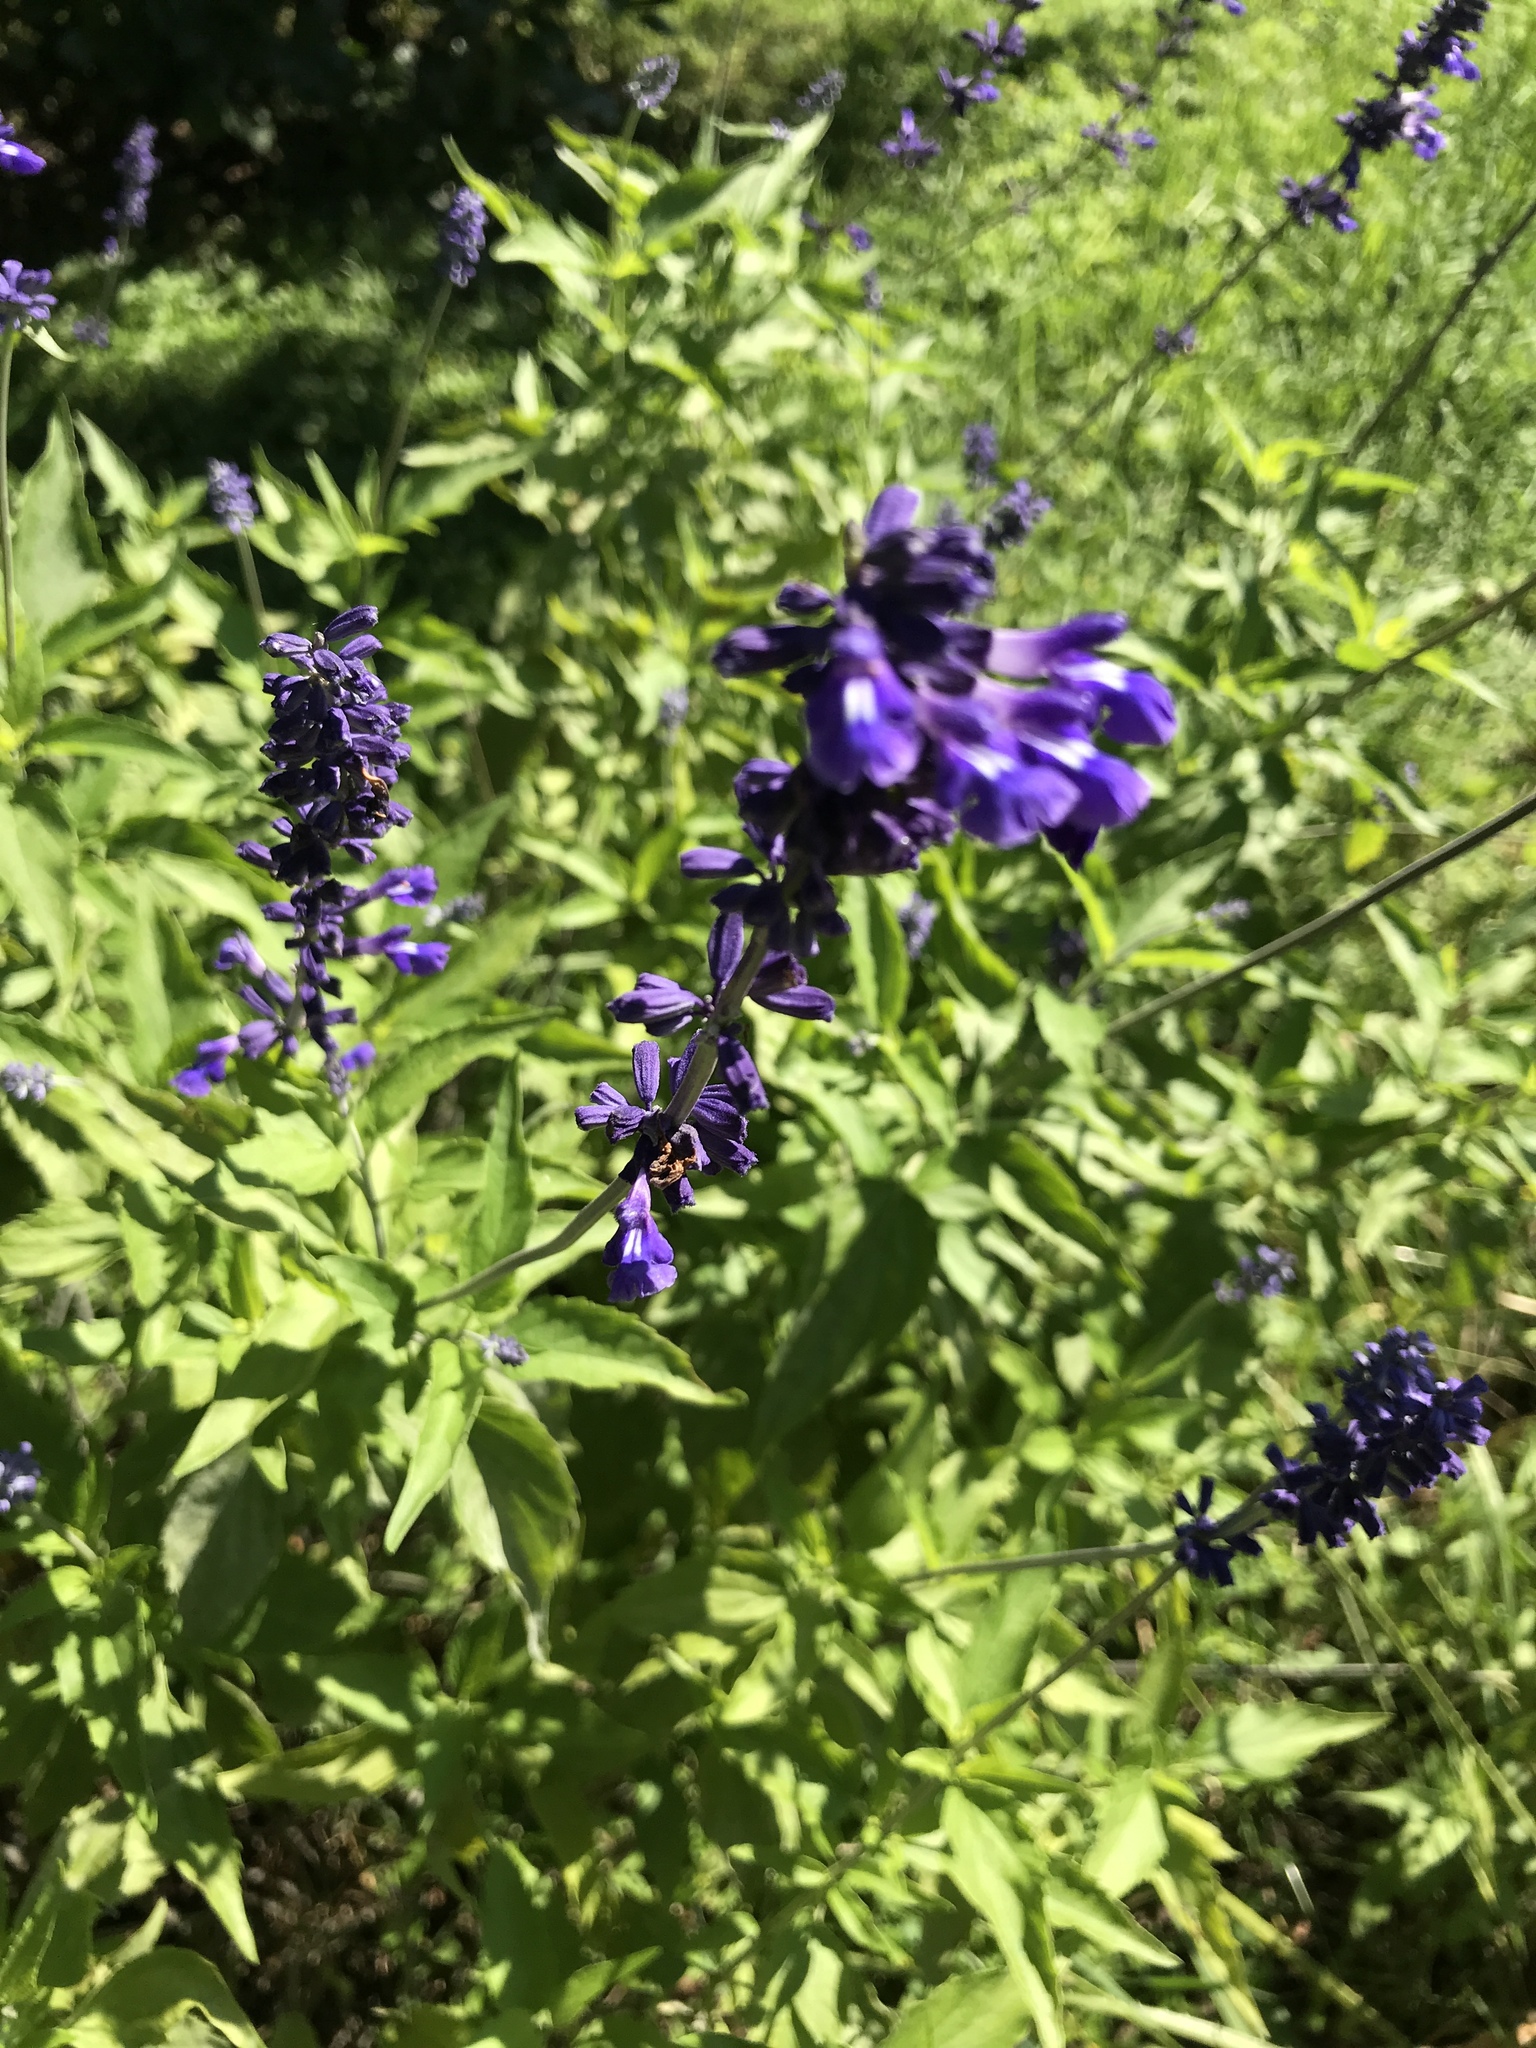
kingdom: Plantae
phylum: Tracheophyta
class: Magnoliopsida
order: Lamiales
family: Lamiaceae
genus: Salvia
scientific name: Salvia farinacea
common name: Mealy sage
